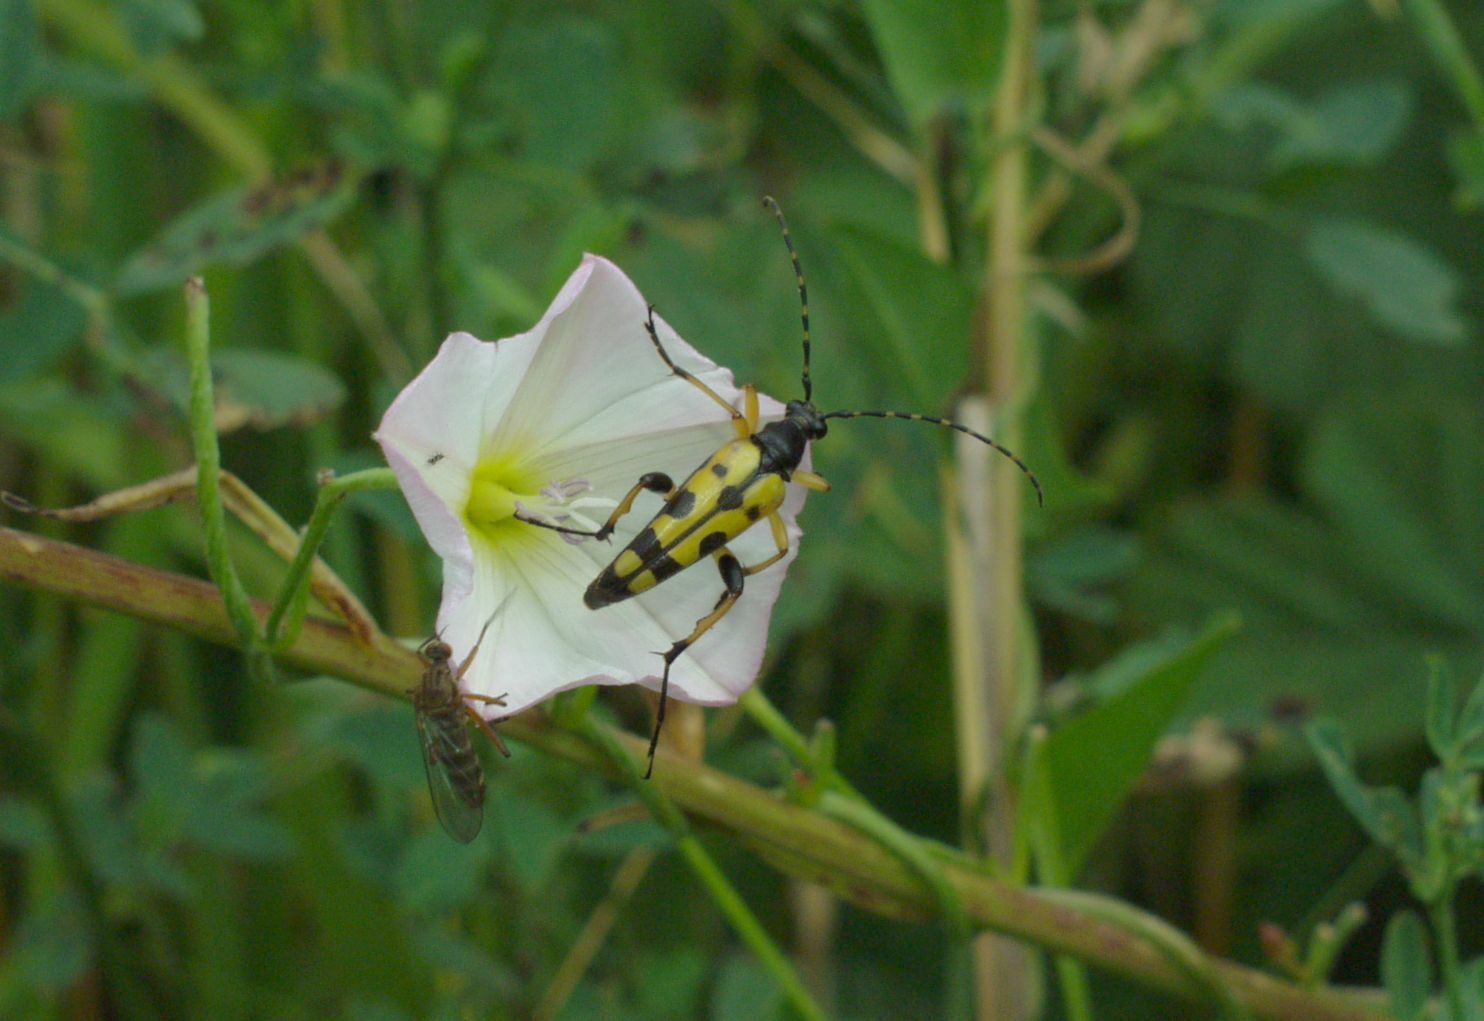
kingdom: Animalia
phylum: Arthropoda
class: Insecta
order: Coleoptera
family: Cerambycidae
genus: Rutpela
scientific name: Rutpela maculata
